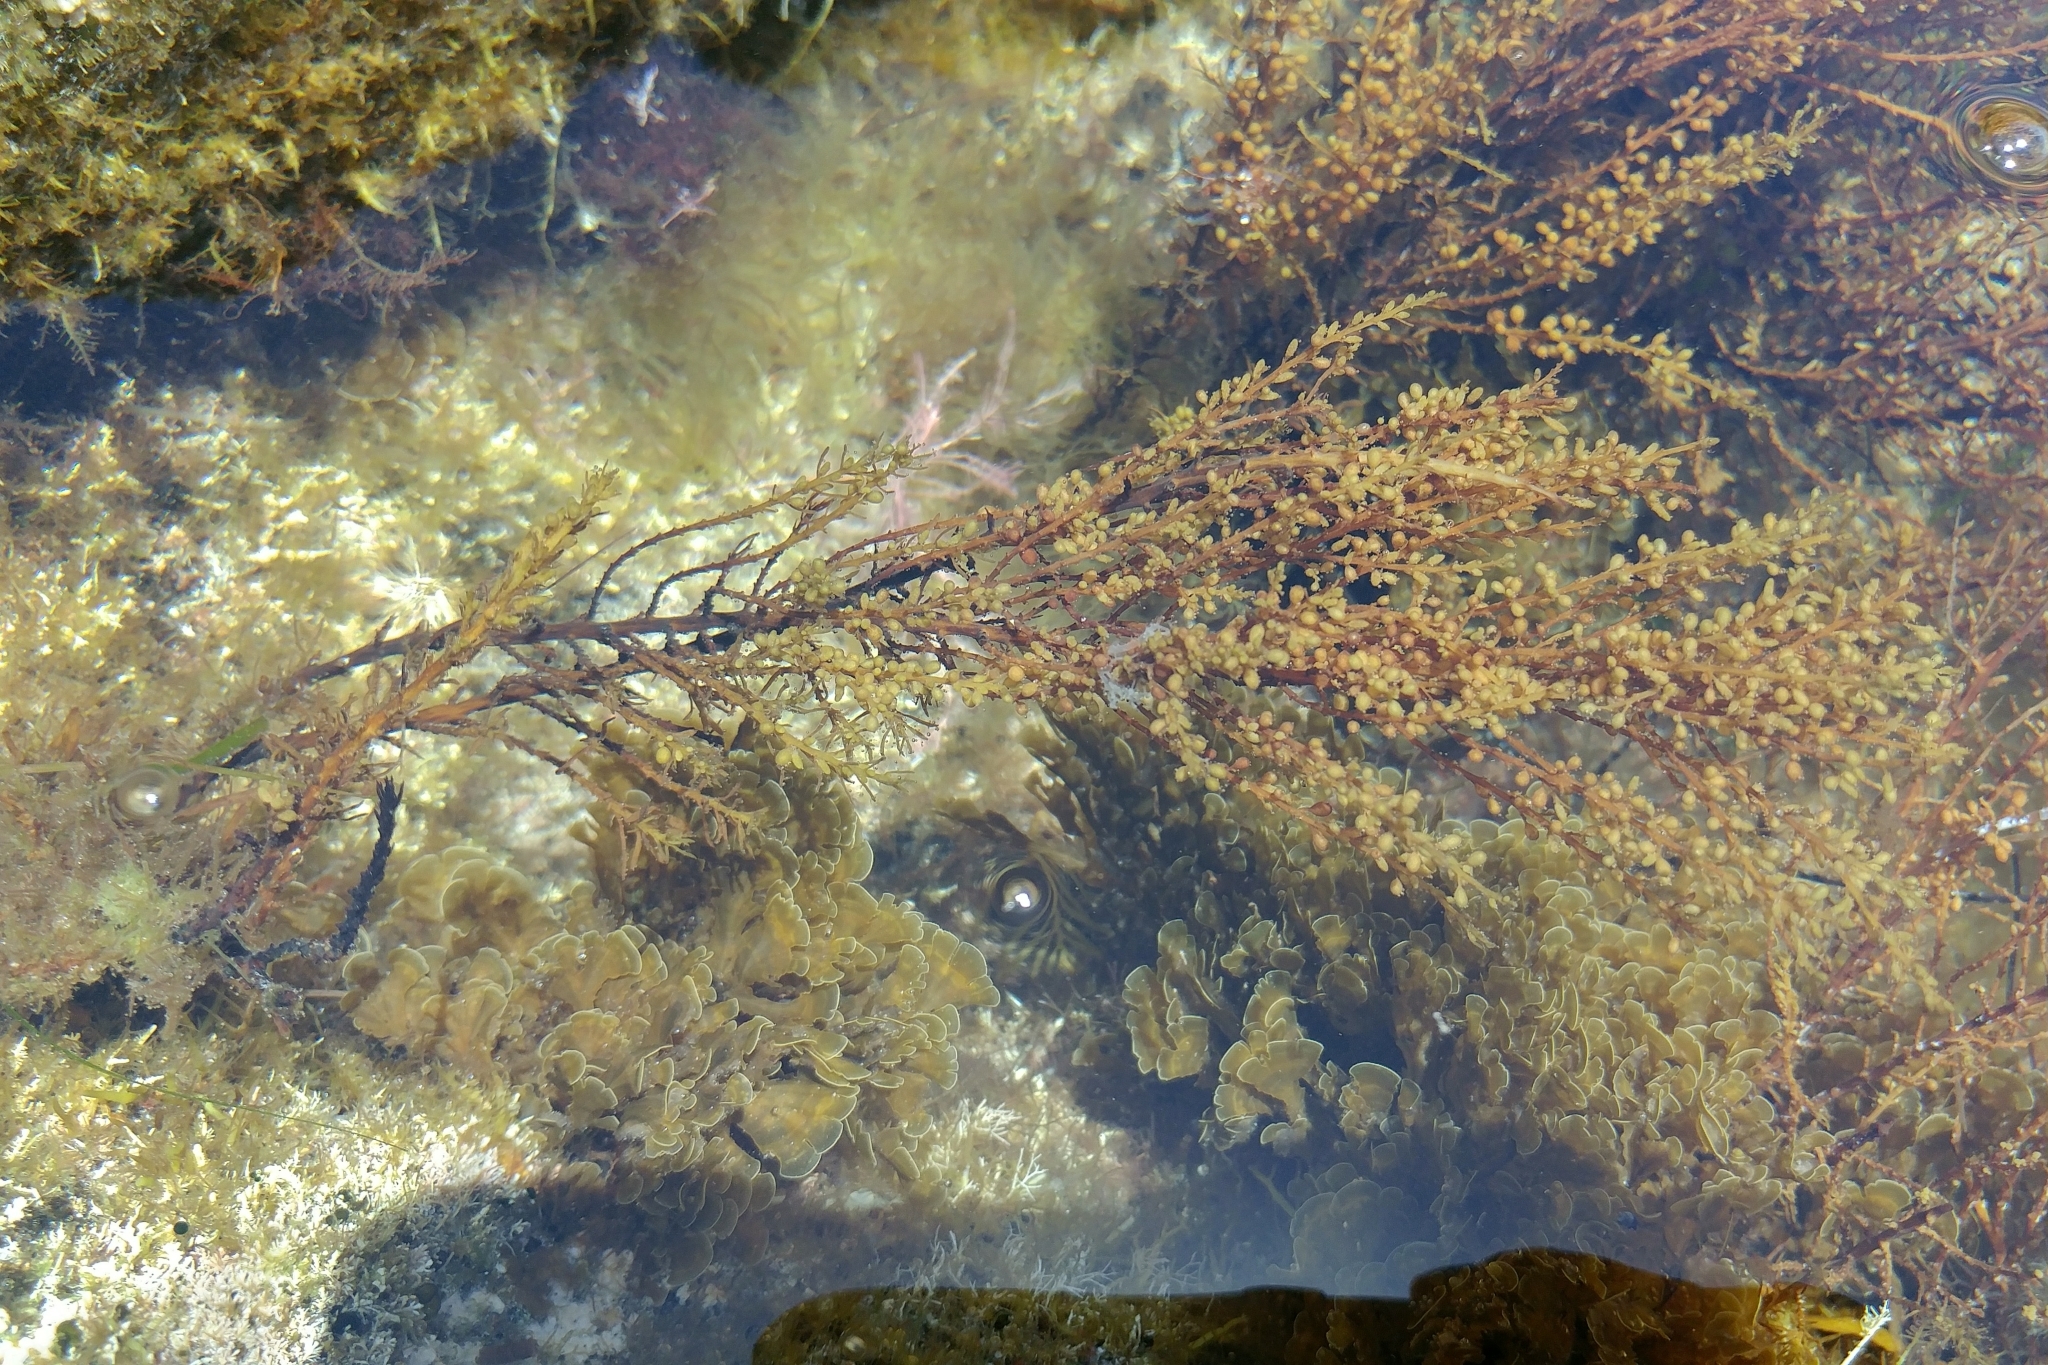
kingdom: Chromista
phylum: Ochrophyta
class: Phaeophyceae
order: Fucales
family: Sargassaceae
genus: Sargassum
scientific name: Sargassum muticum
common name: Japweed
